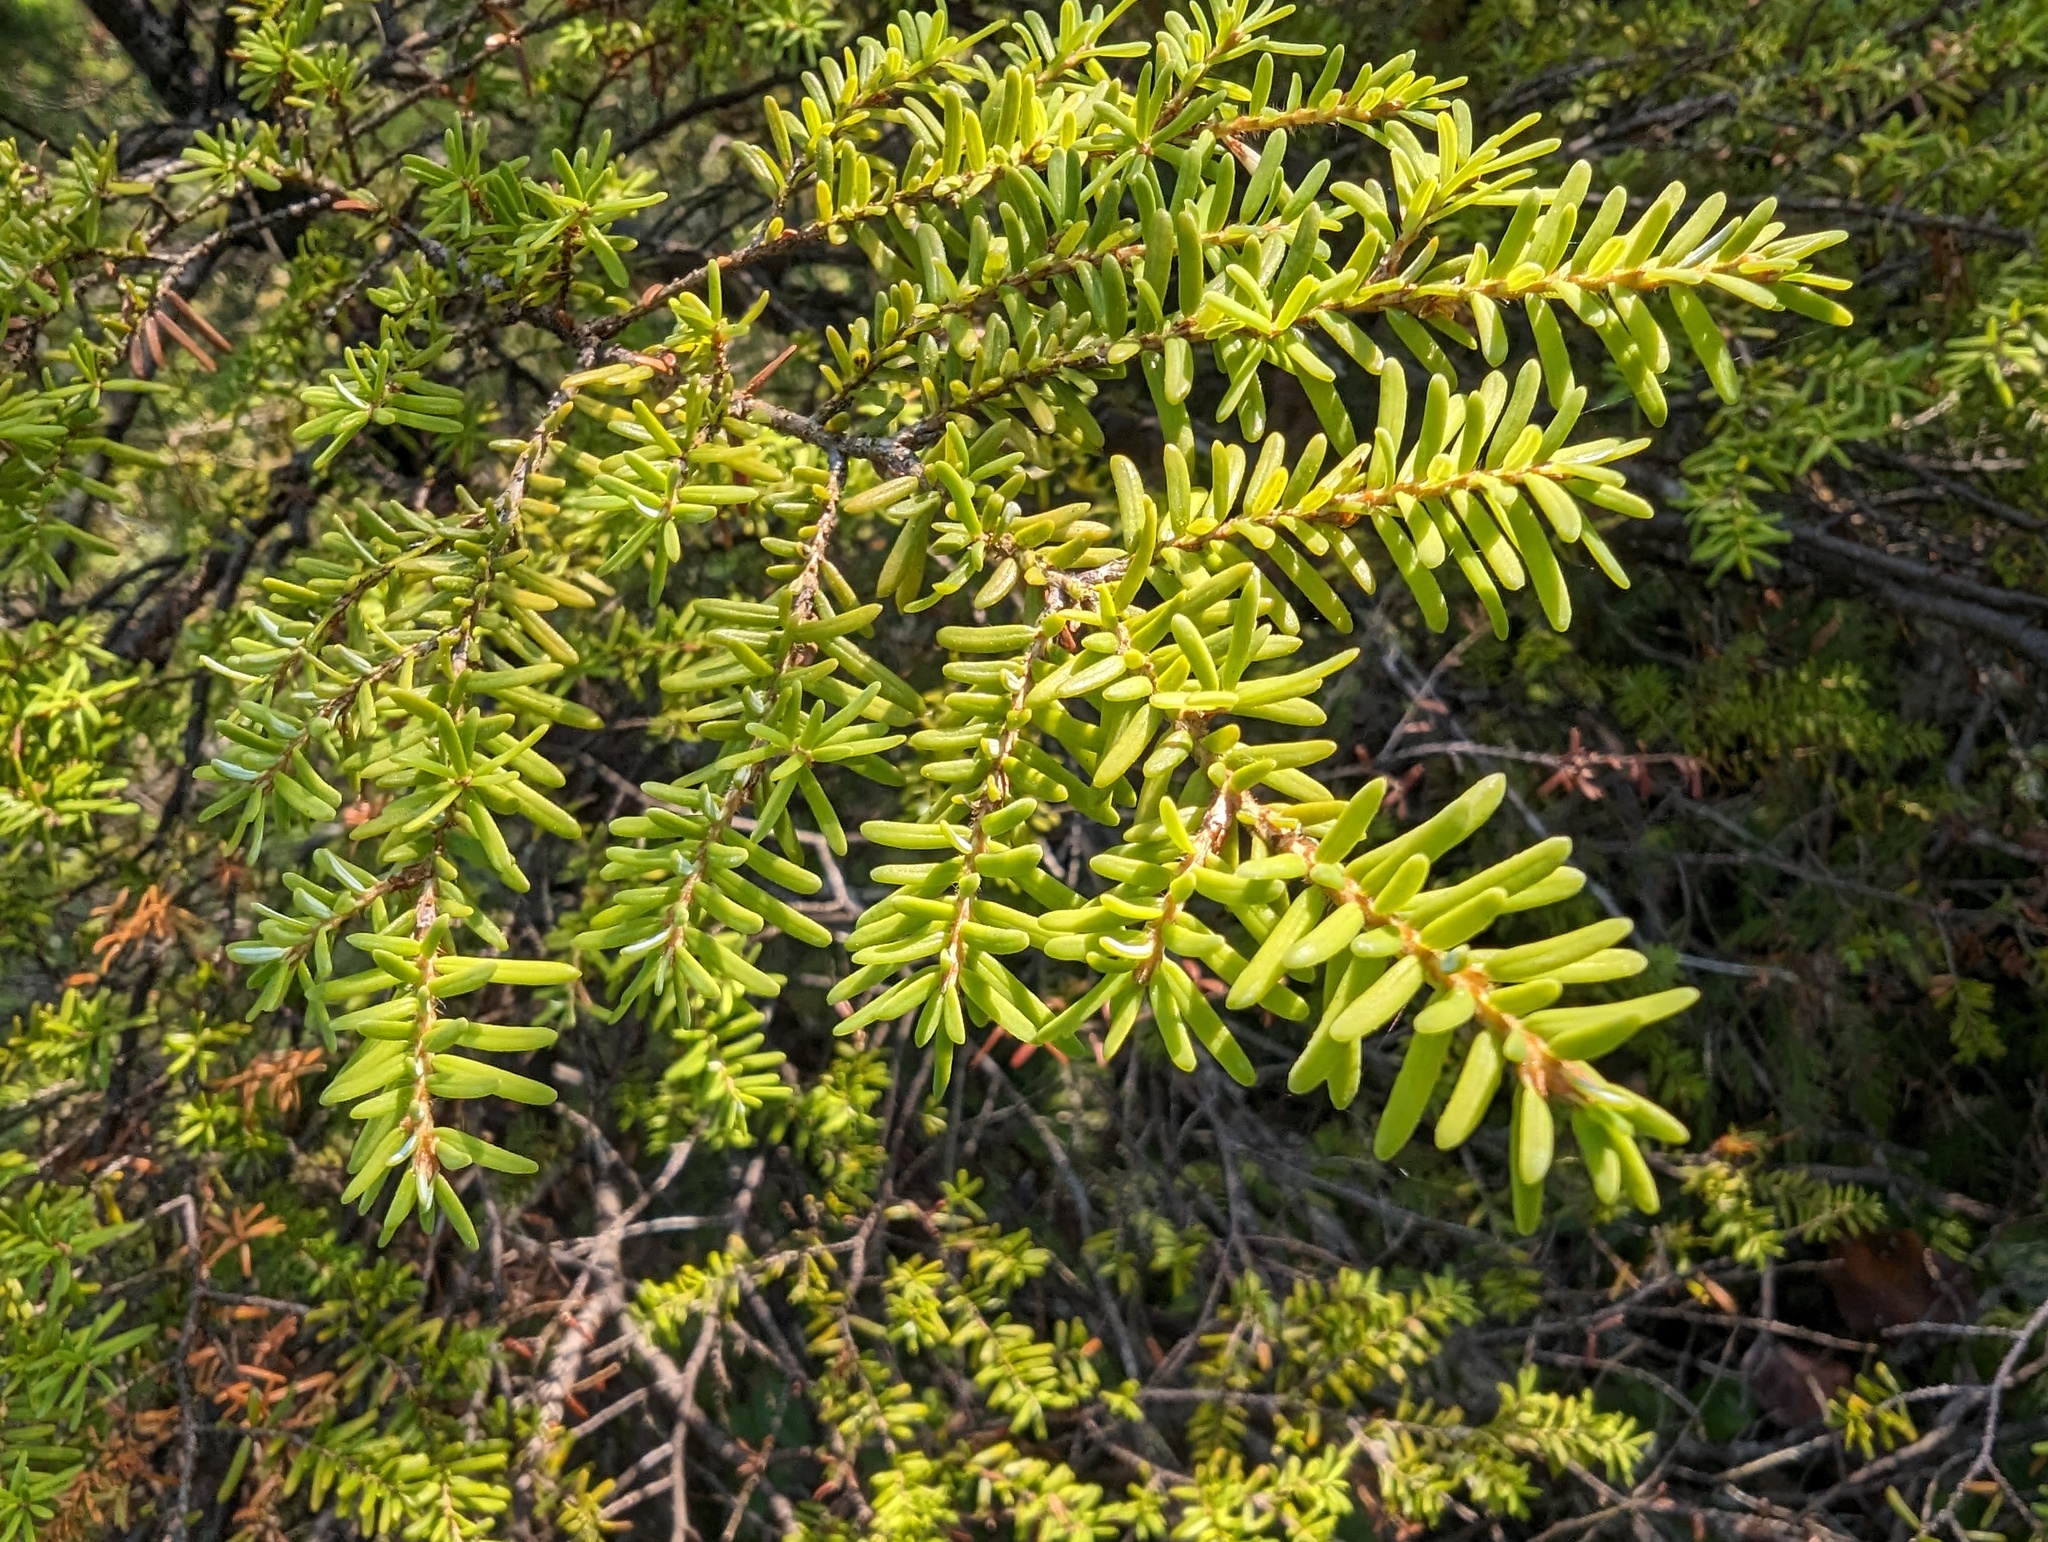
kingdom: Plantae
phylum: Tracheophyta
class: Pinopsida
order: Pinales
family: Pinaceae
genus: Tsuga
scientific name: Tsuga heterophylla
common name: Western hemlock
